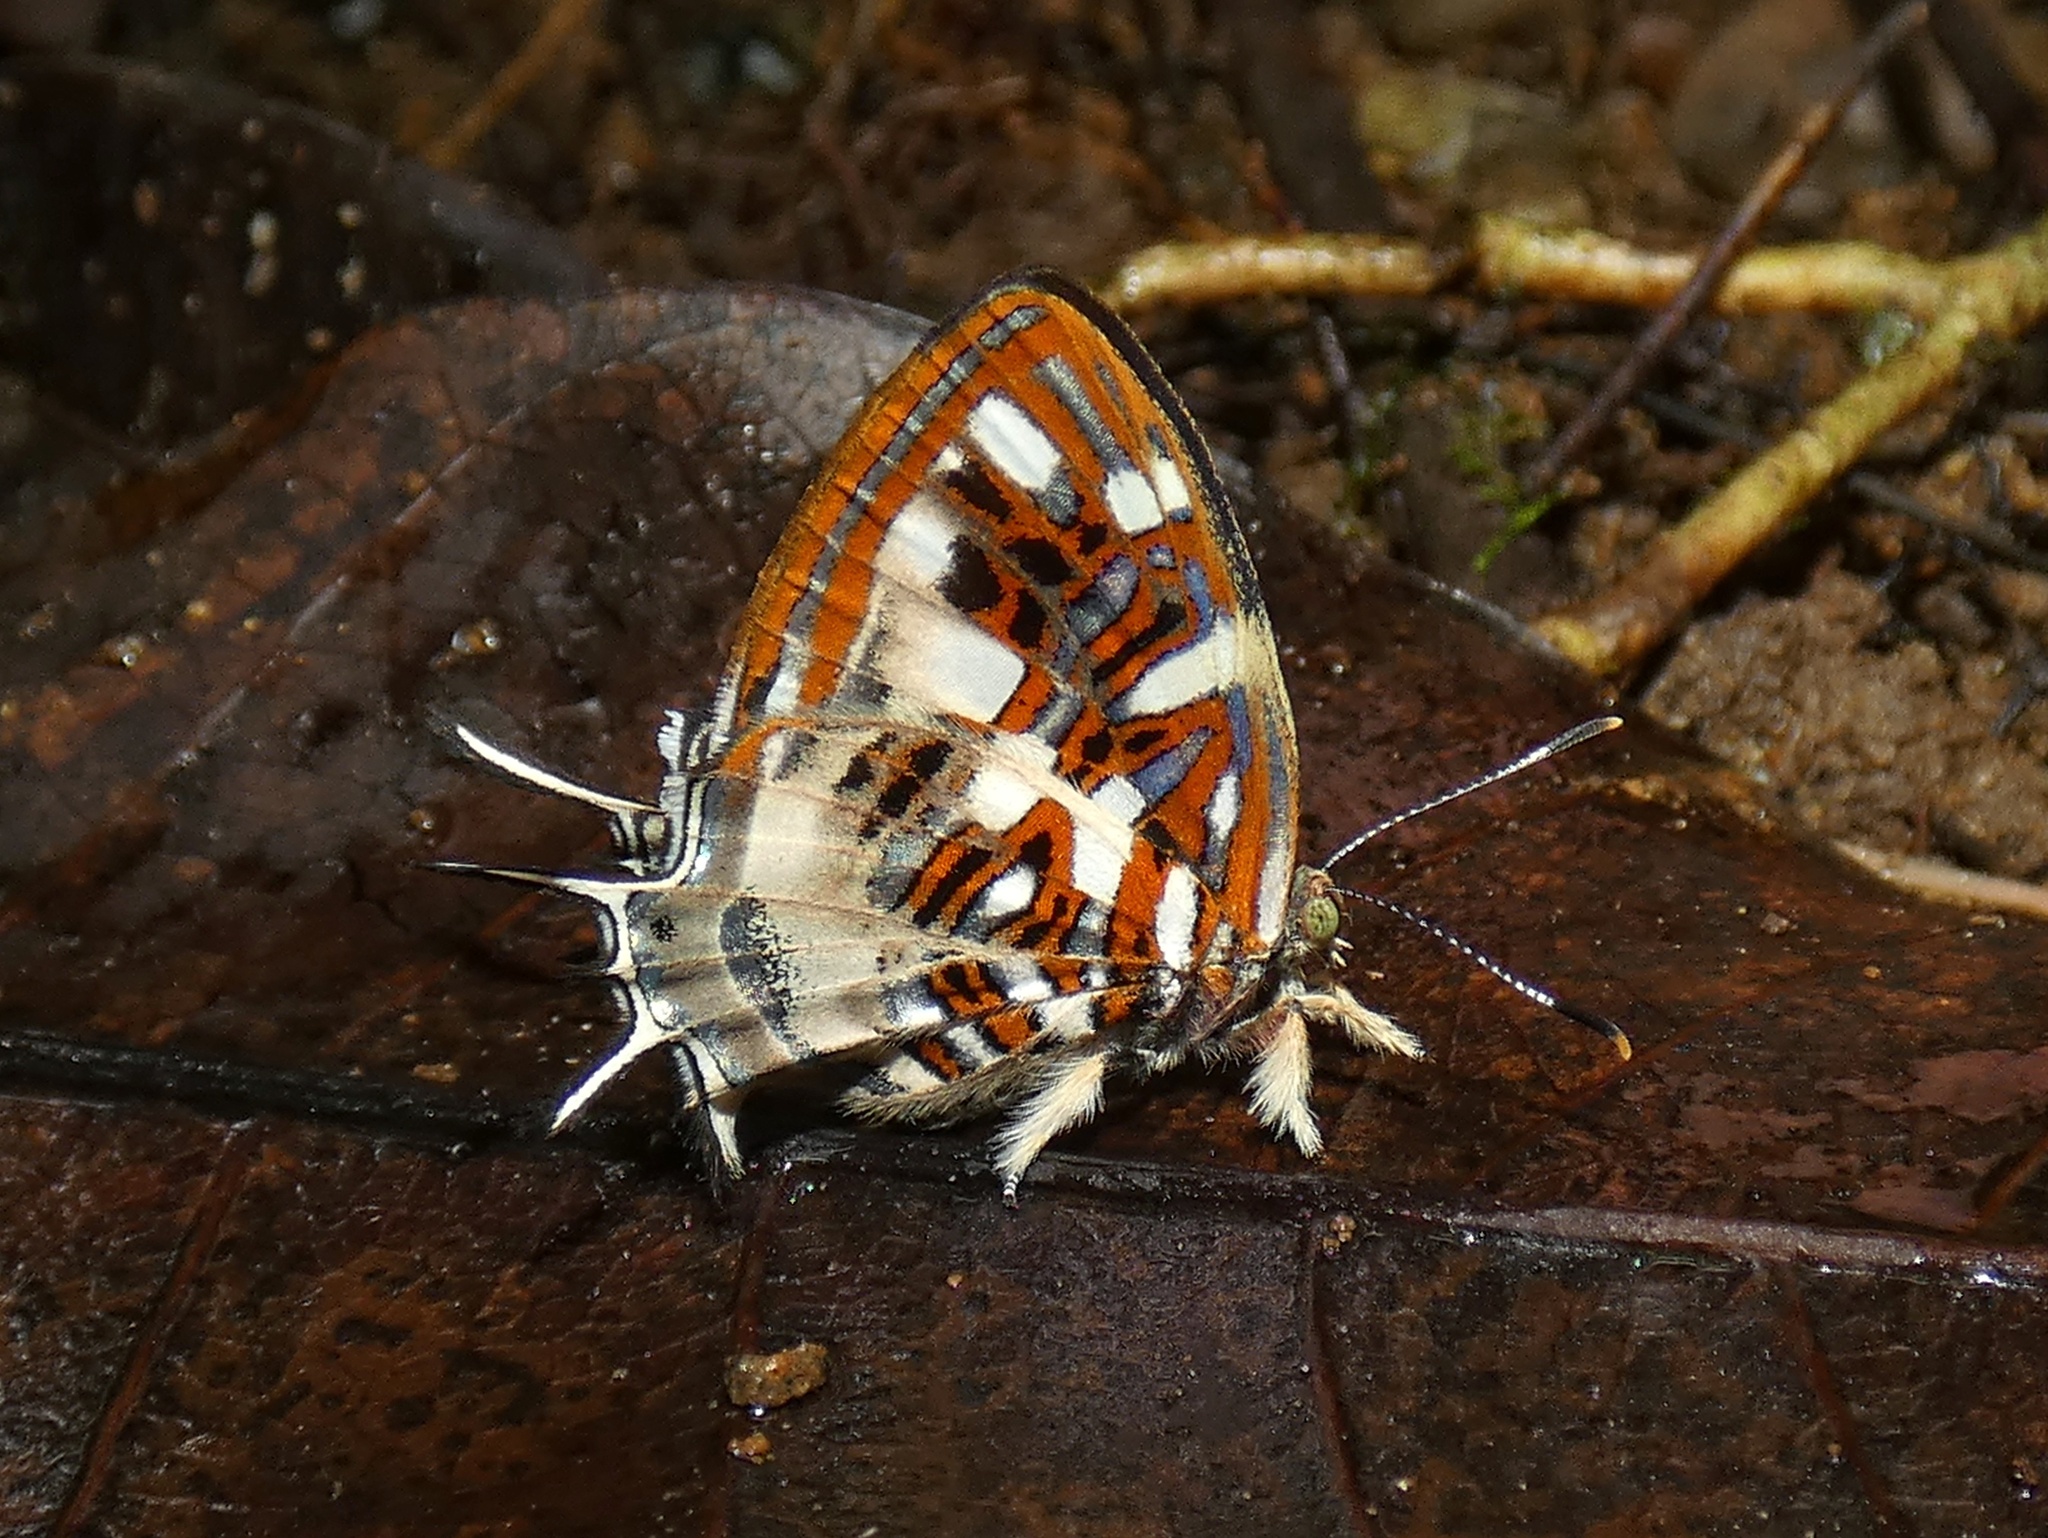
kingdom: Animalia
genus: Charis
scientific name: Charis Sarota chrysus
